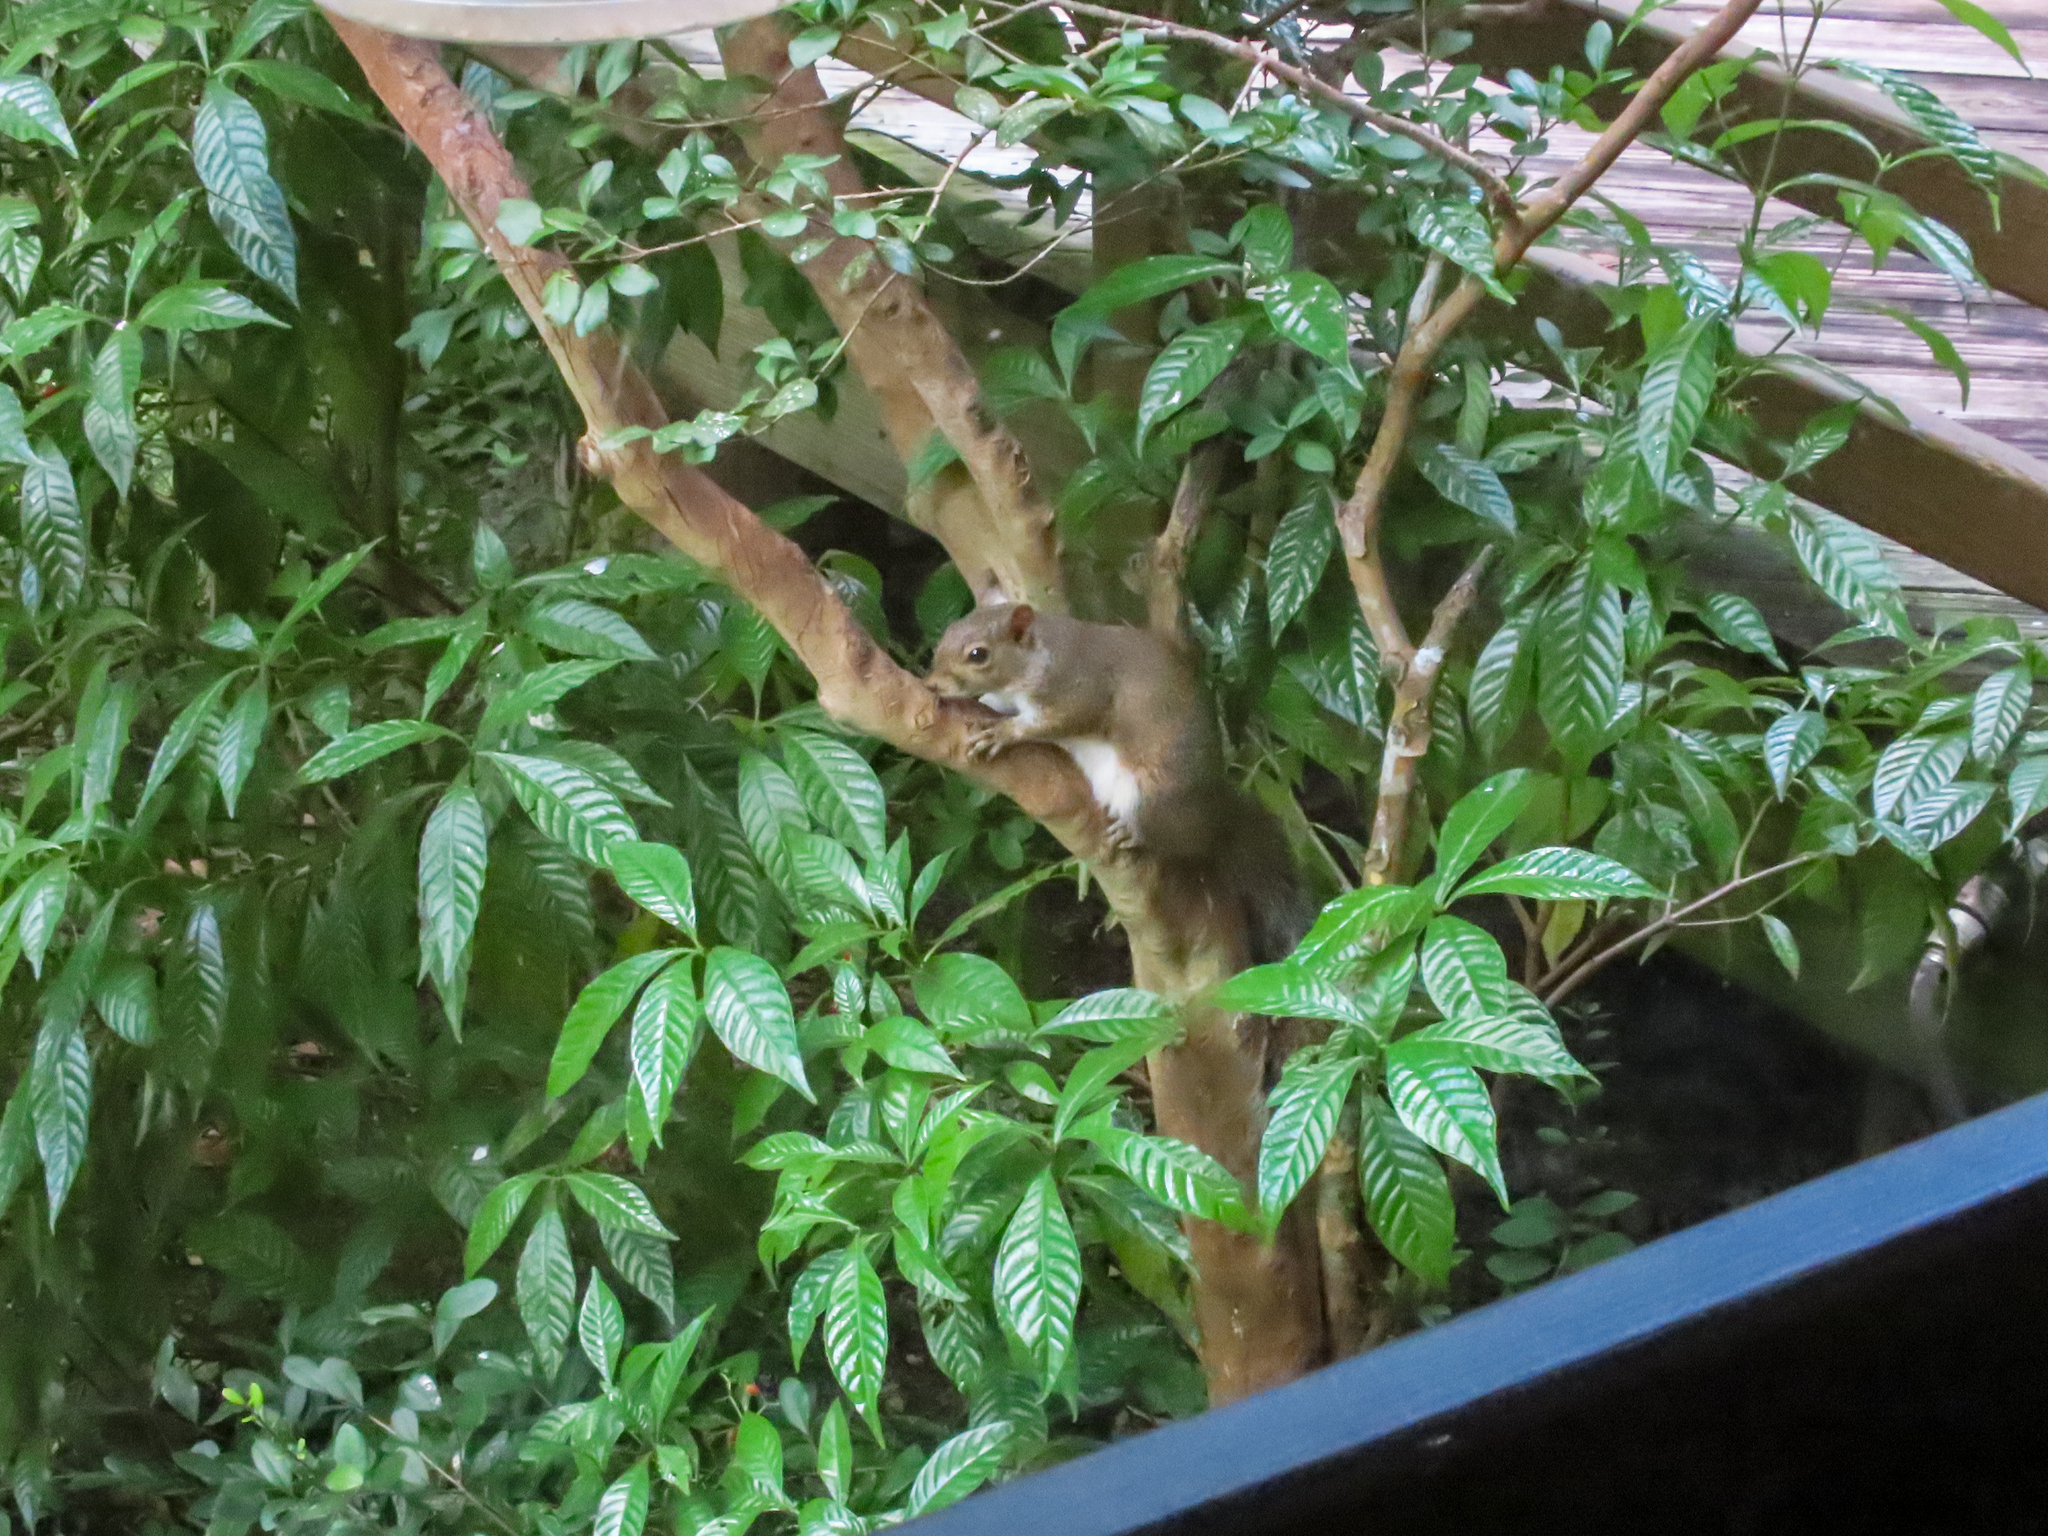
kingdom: Animalia
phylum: Chordata
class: Mammalia
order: Rodentia
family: Sciuridae
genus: Sciurus
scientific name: Sciurus carolinensis
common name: Eastern gray squirrel
